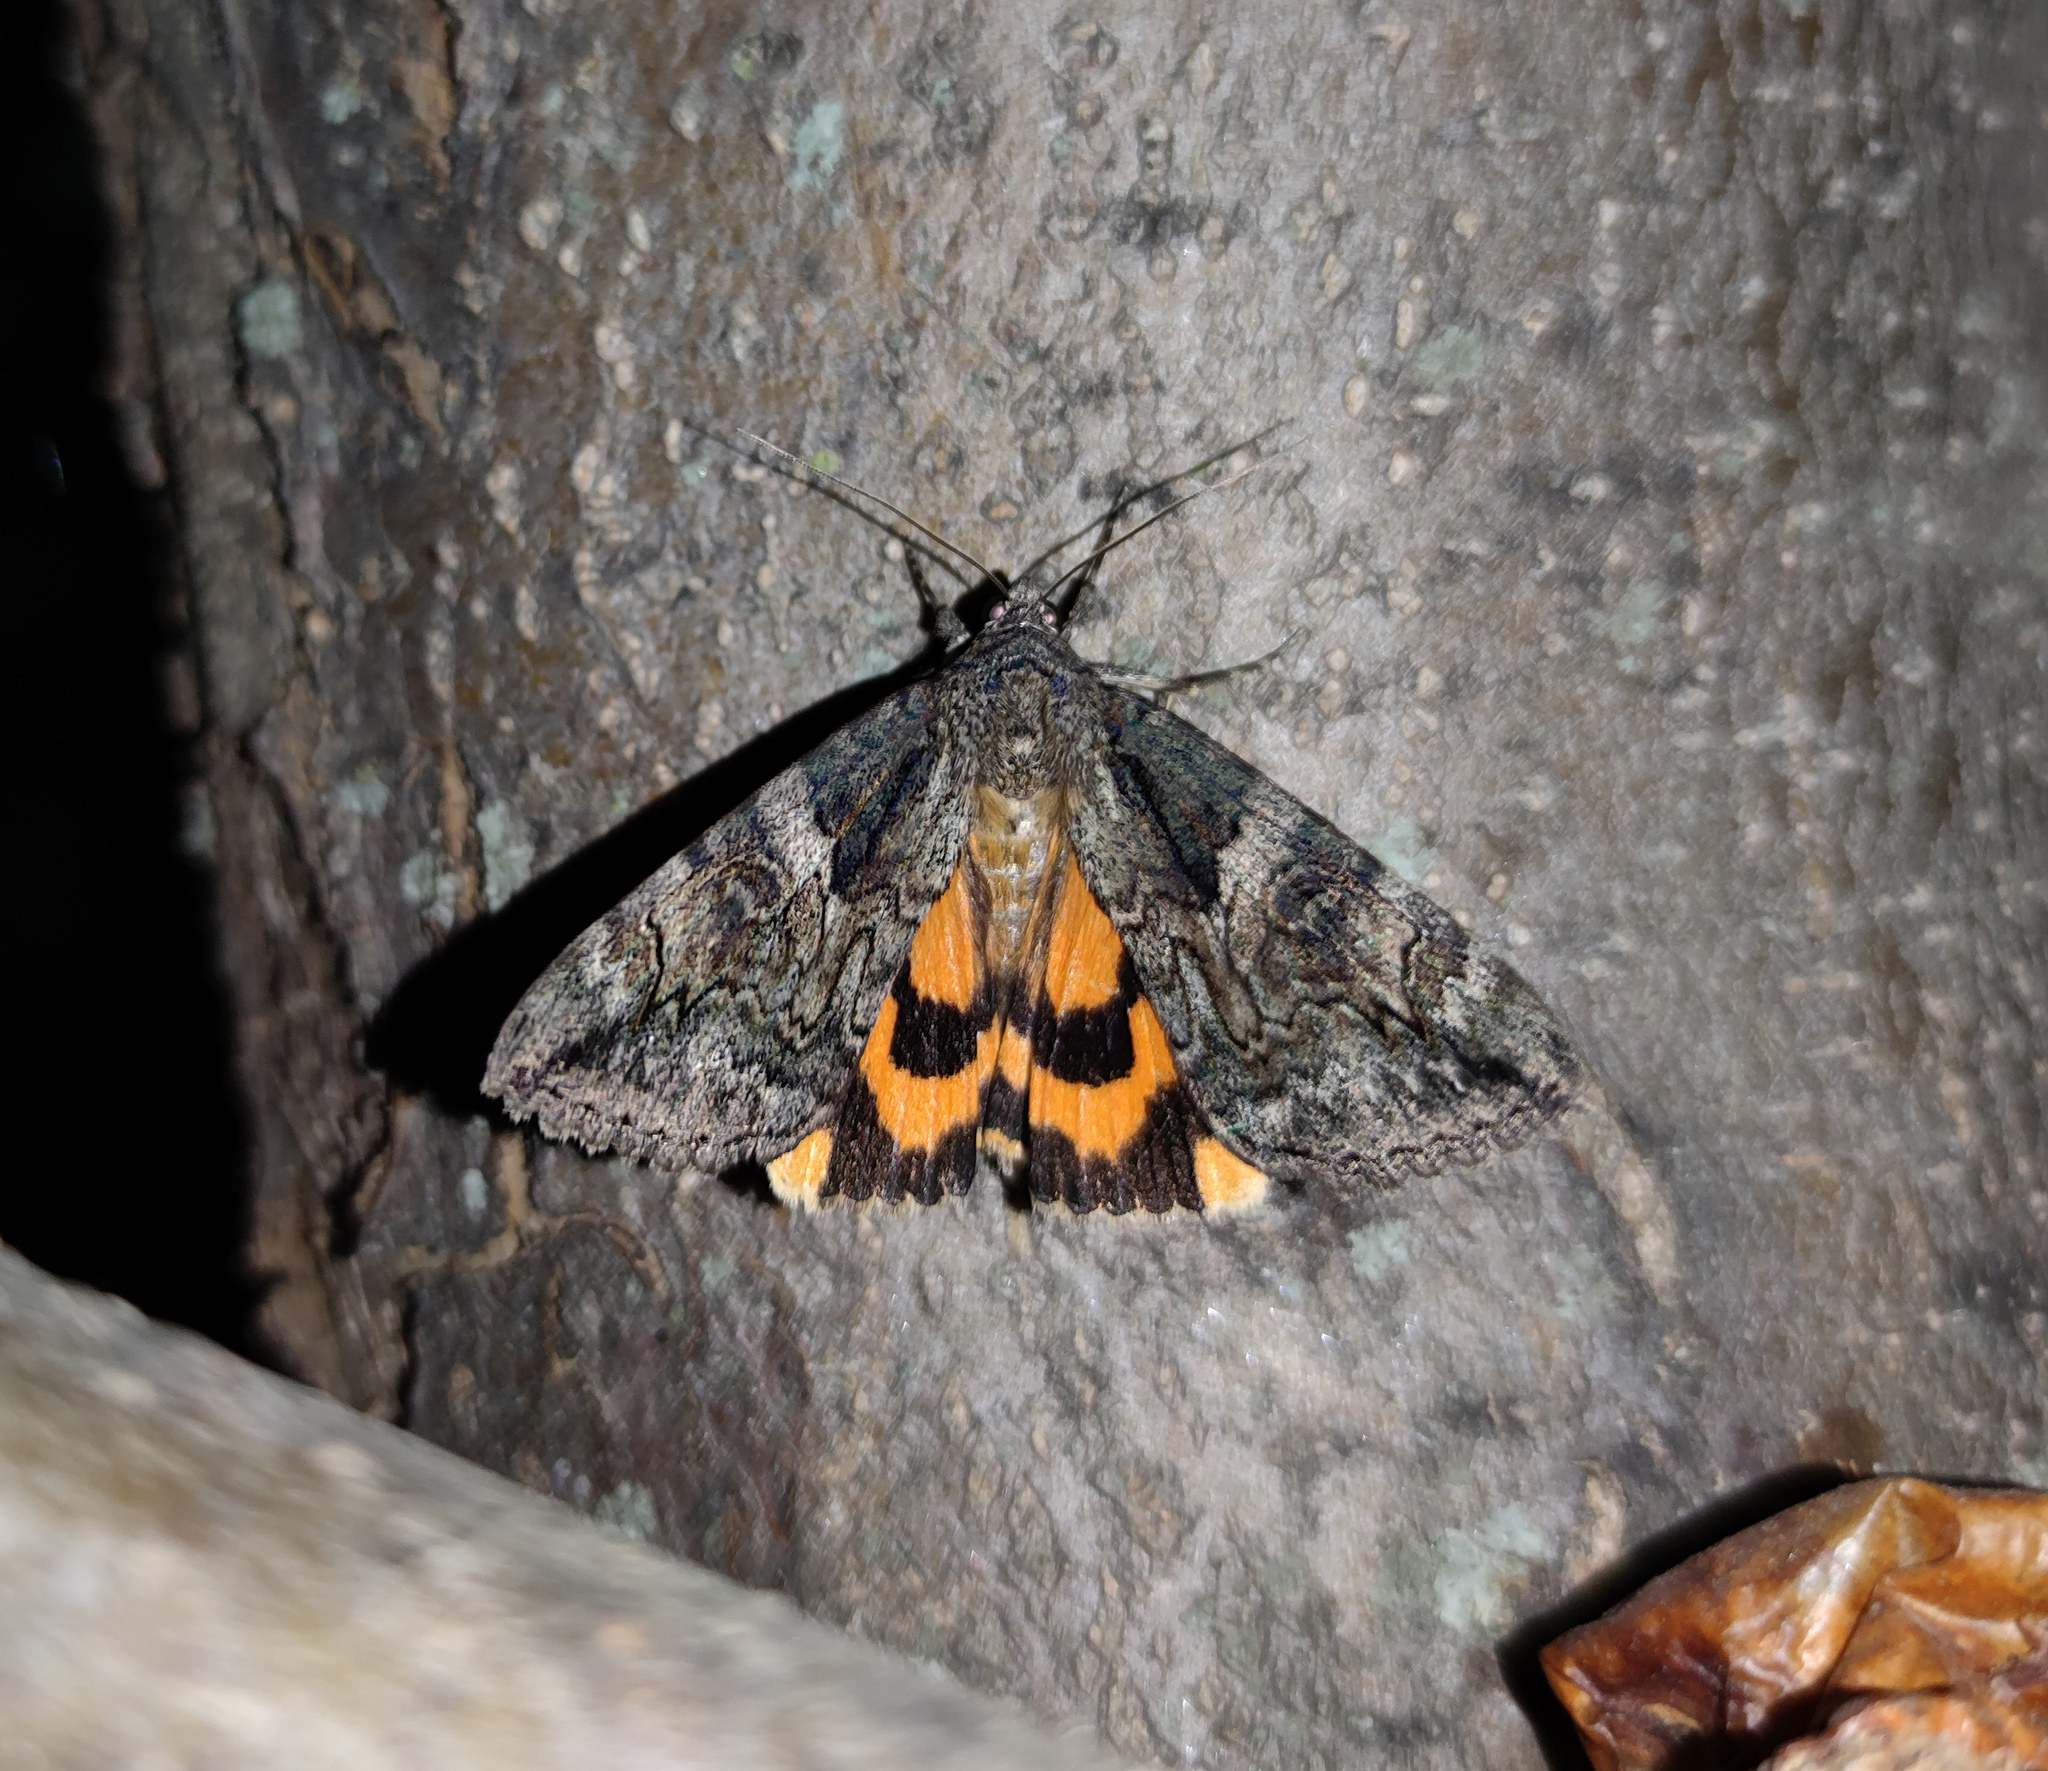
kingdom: Animalia
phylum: Arthropoda
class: Insecta
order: Lepidoptera
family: Erebidae
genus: Catocala
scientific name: Catocala helena
